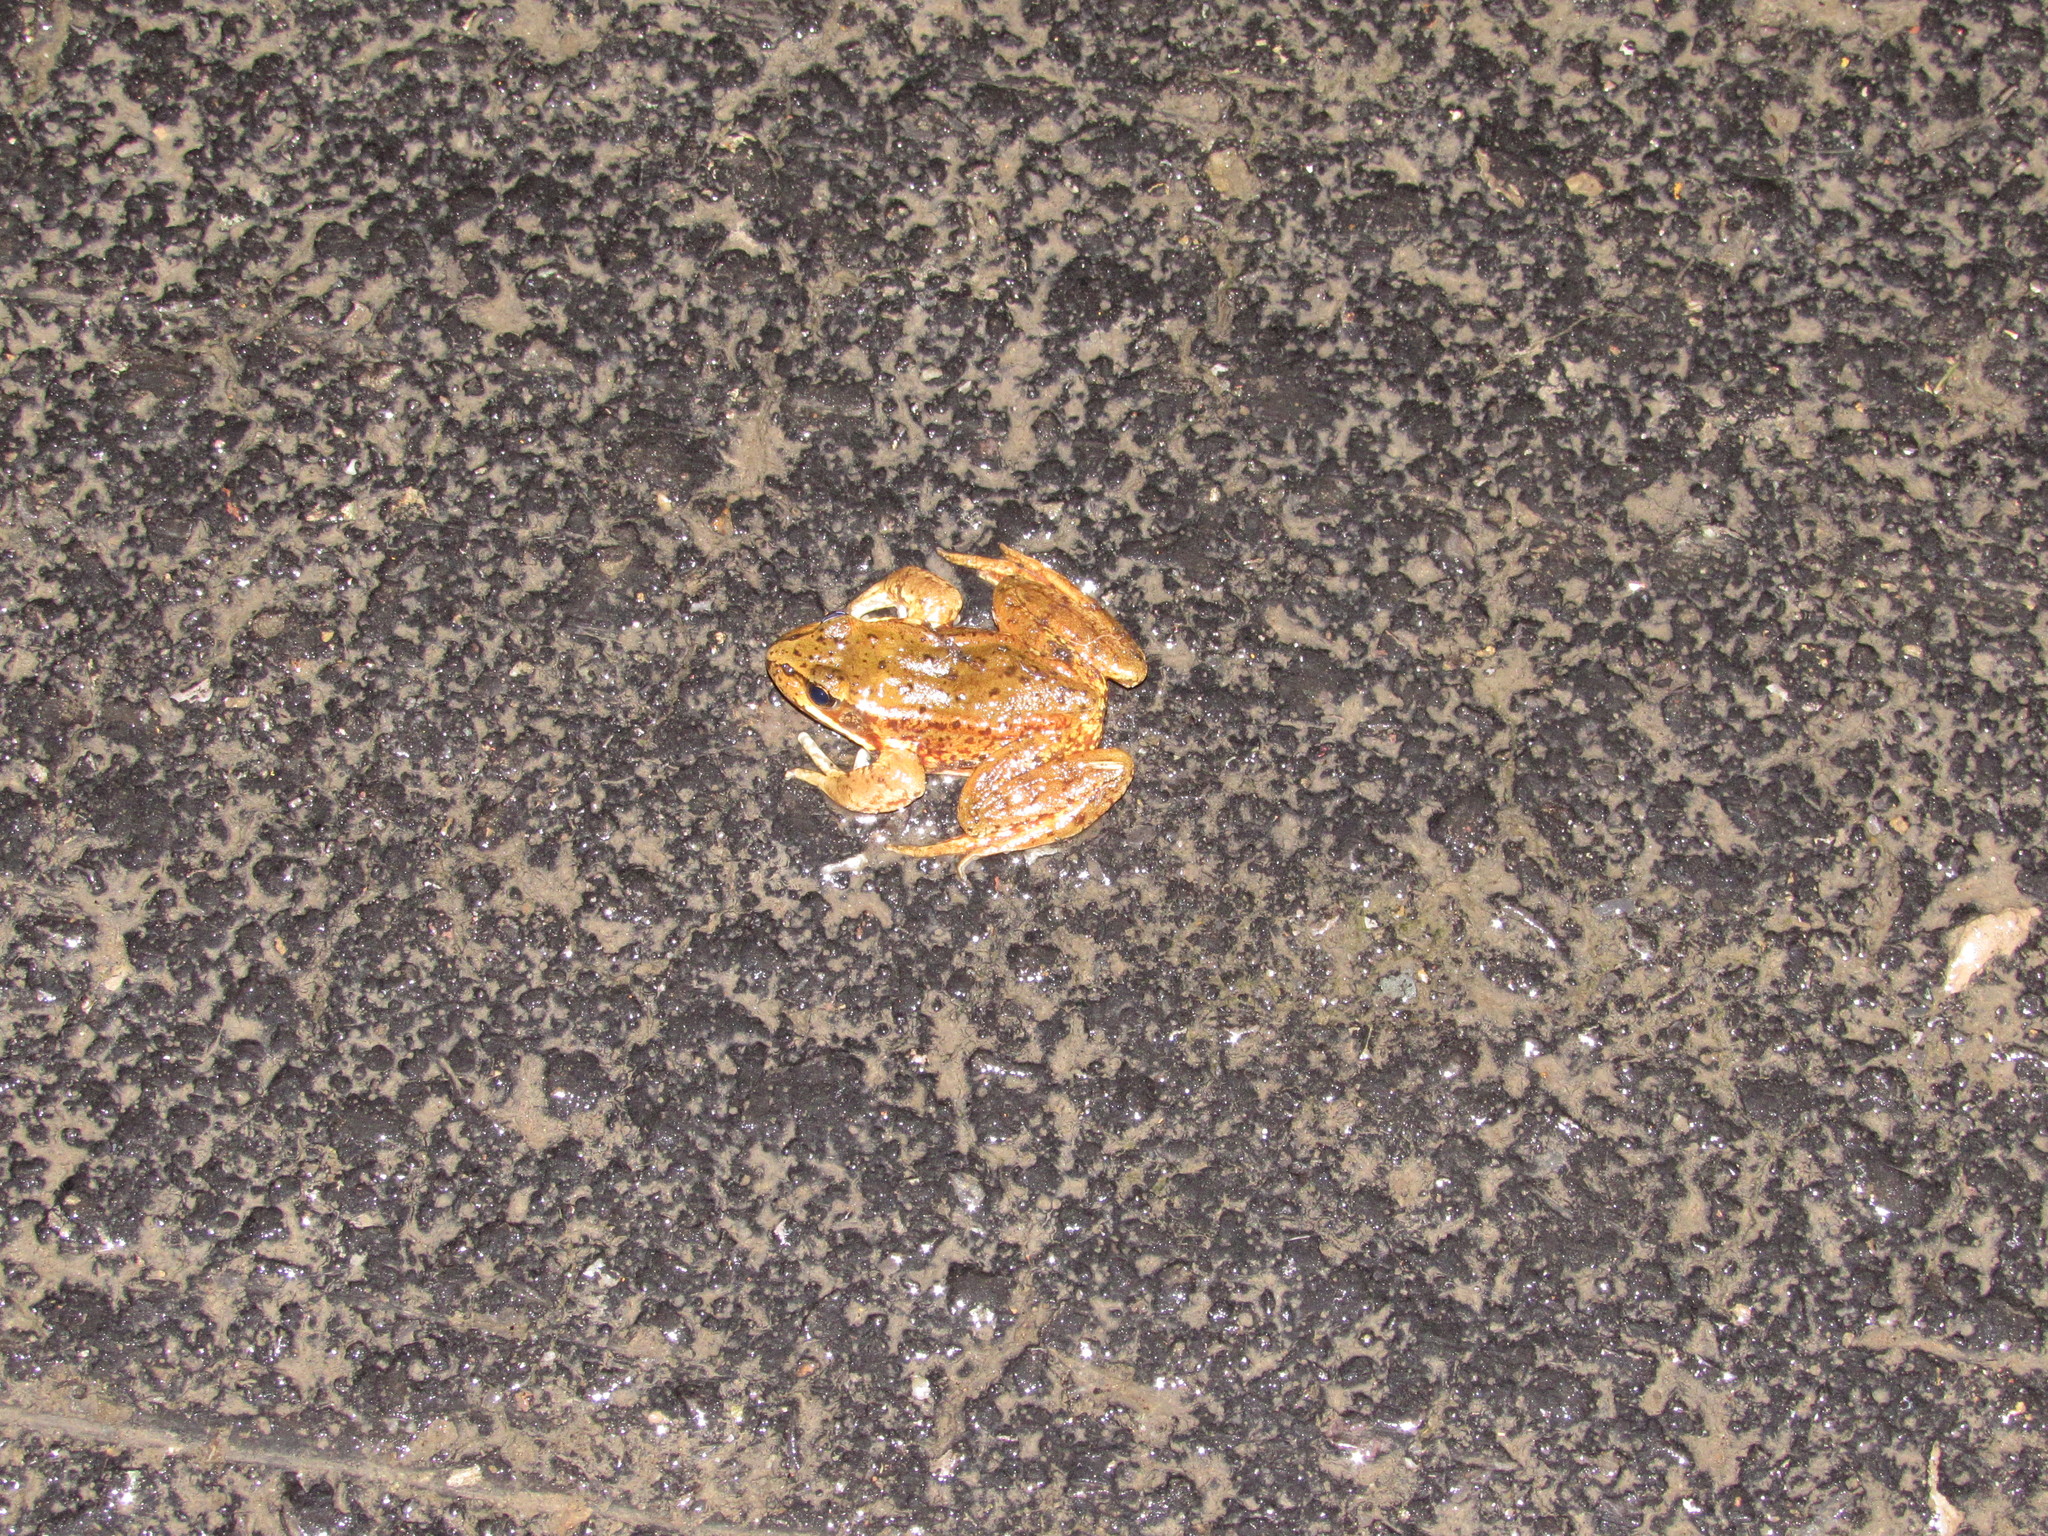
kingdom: Animalia
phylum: Chordata
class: Amphibia
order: Anura
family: Ranidae
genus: Rana
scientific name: Rana aurora
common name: Red-legged frog
